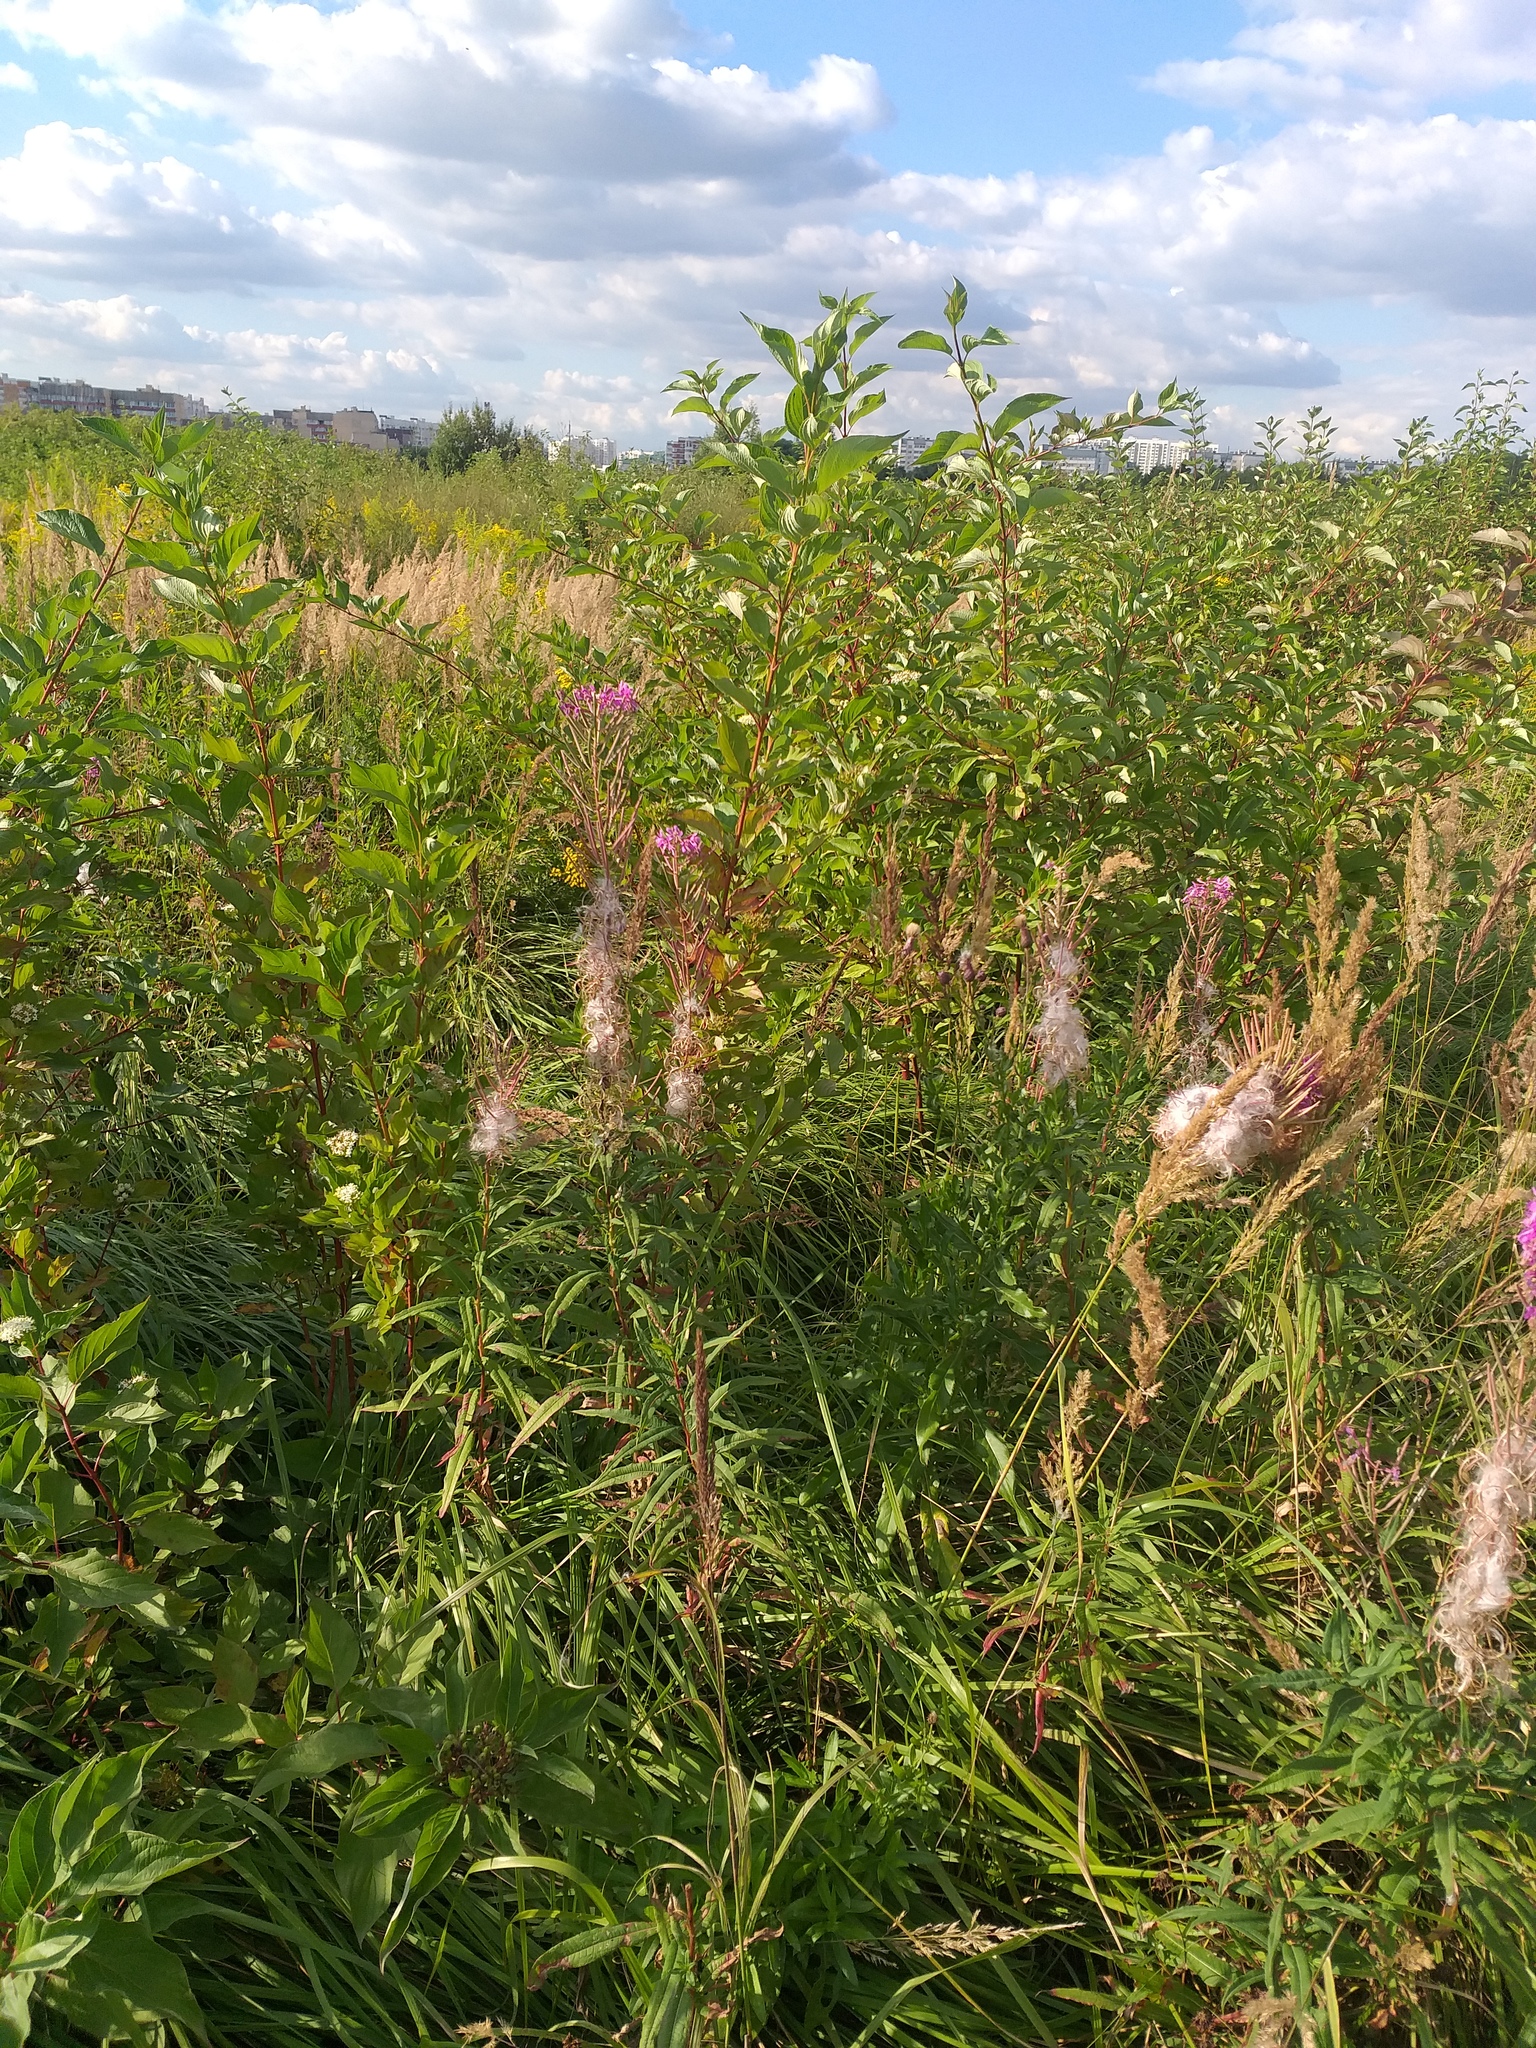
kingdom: Plantae
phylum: Tracheophyta
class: Magnoliopsida
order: Myrtales
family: Onagraceae
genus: Chamaenerion
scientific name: Chamaenerion angustifolium
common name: Fireweed
